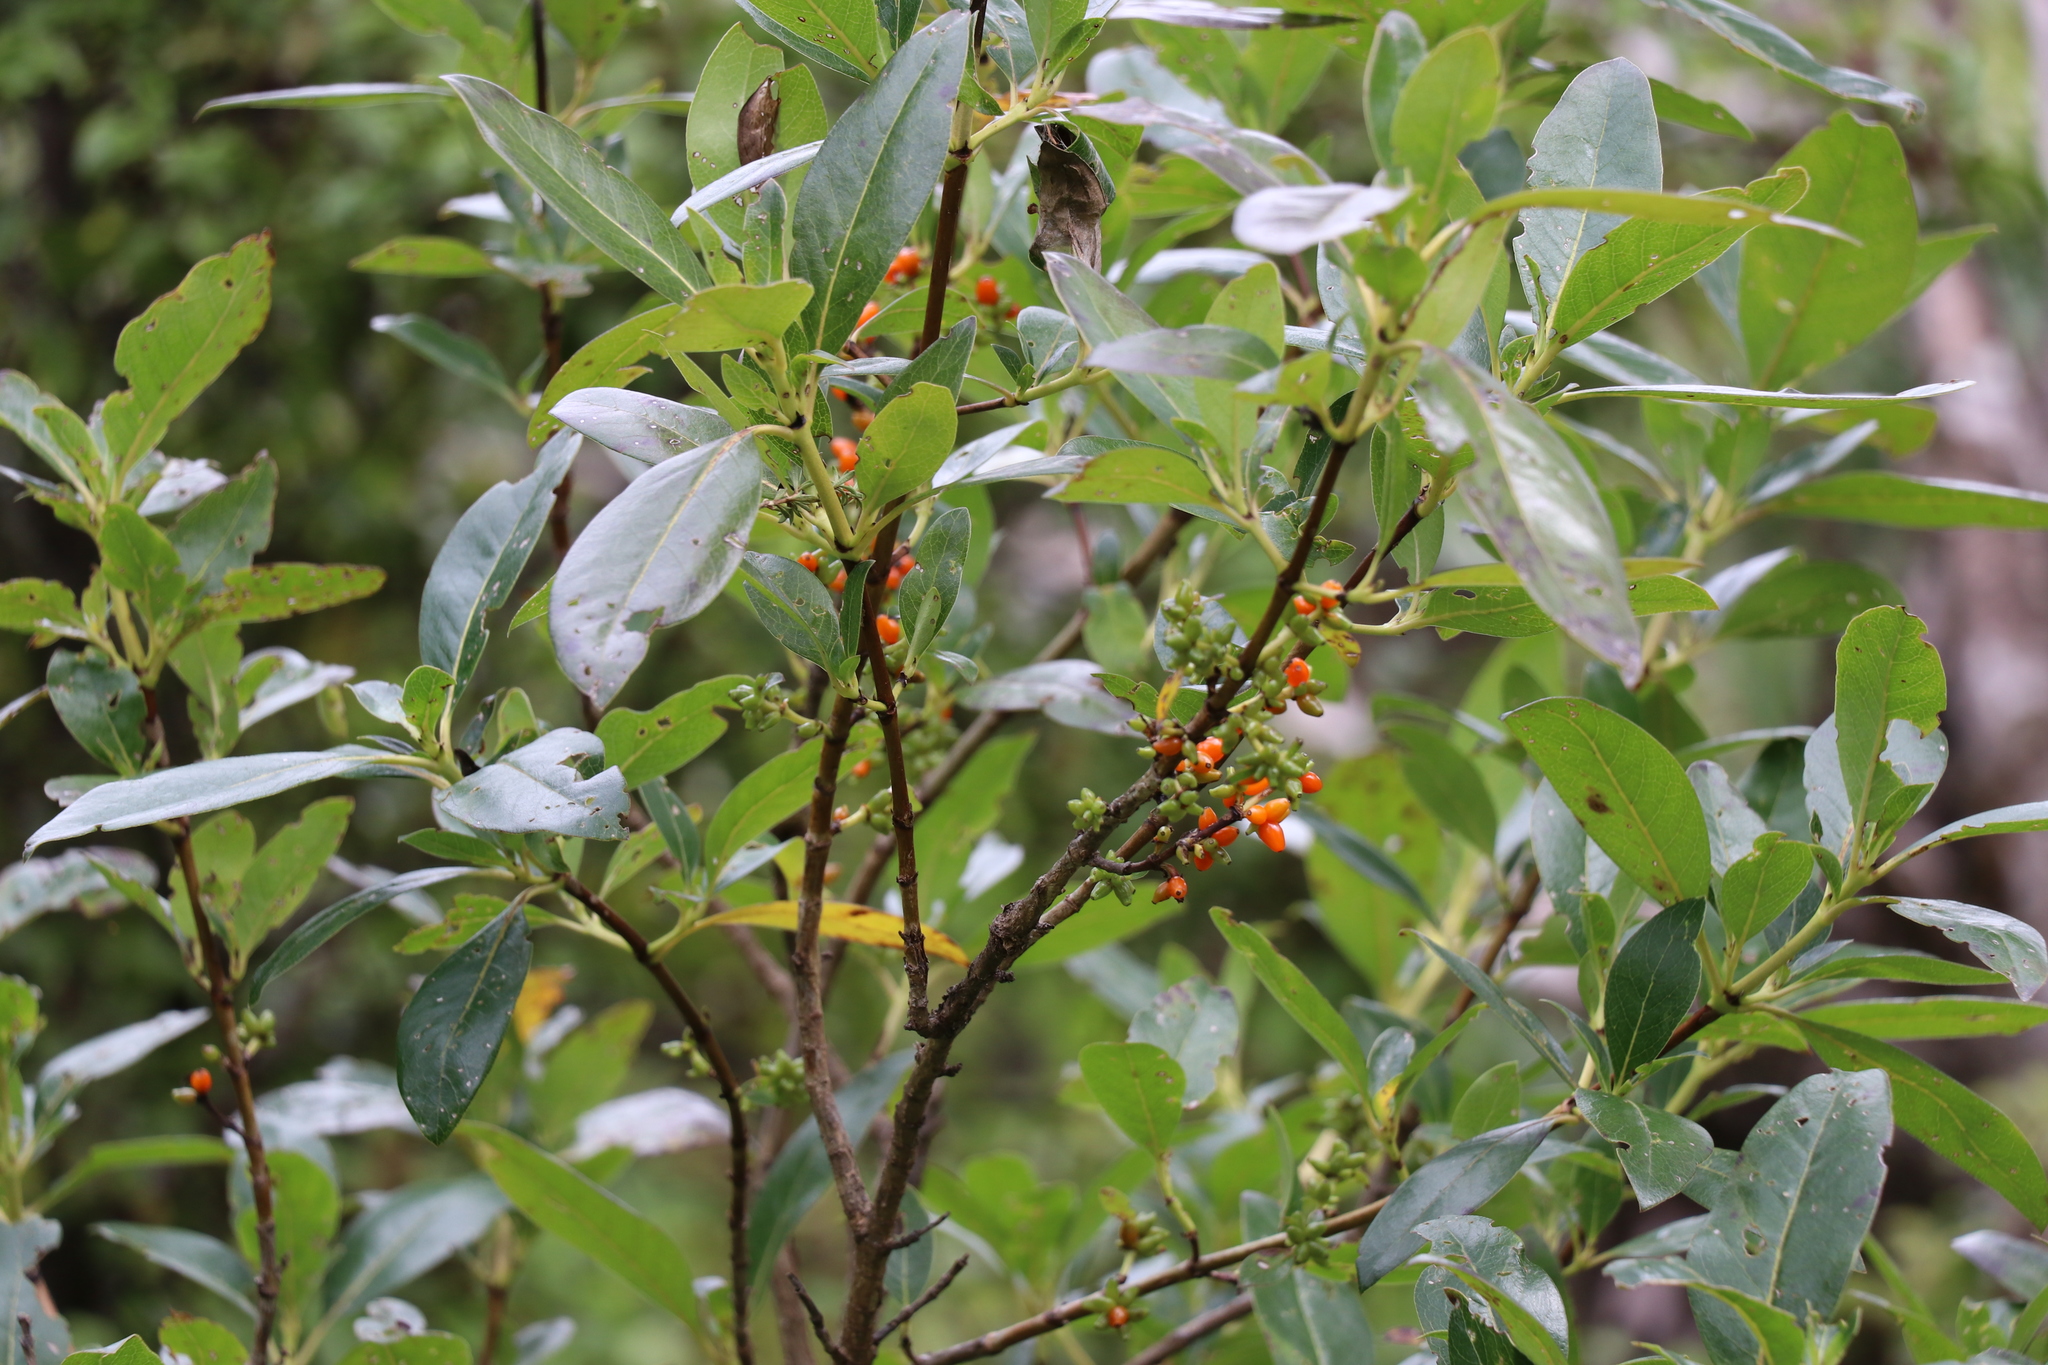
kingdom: Plantae
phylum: Tracheophyta
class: Magnoliopsida
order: Gentianales
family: Rubiaceae
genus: Coprosma
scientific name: Coprosma robusta
